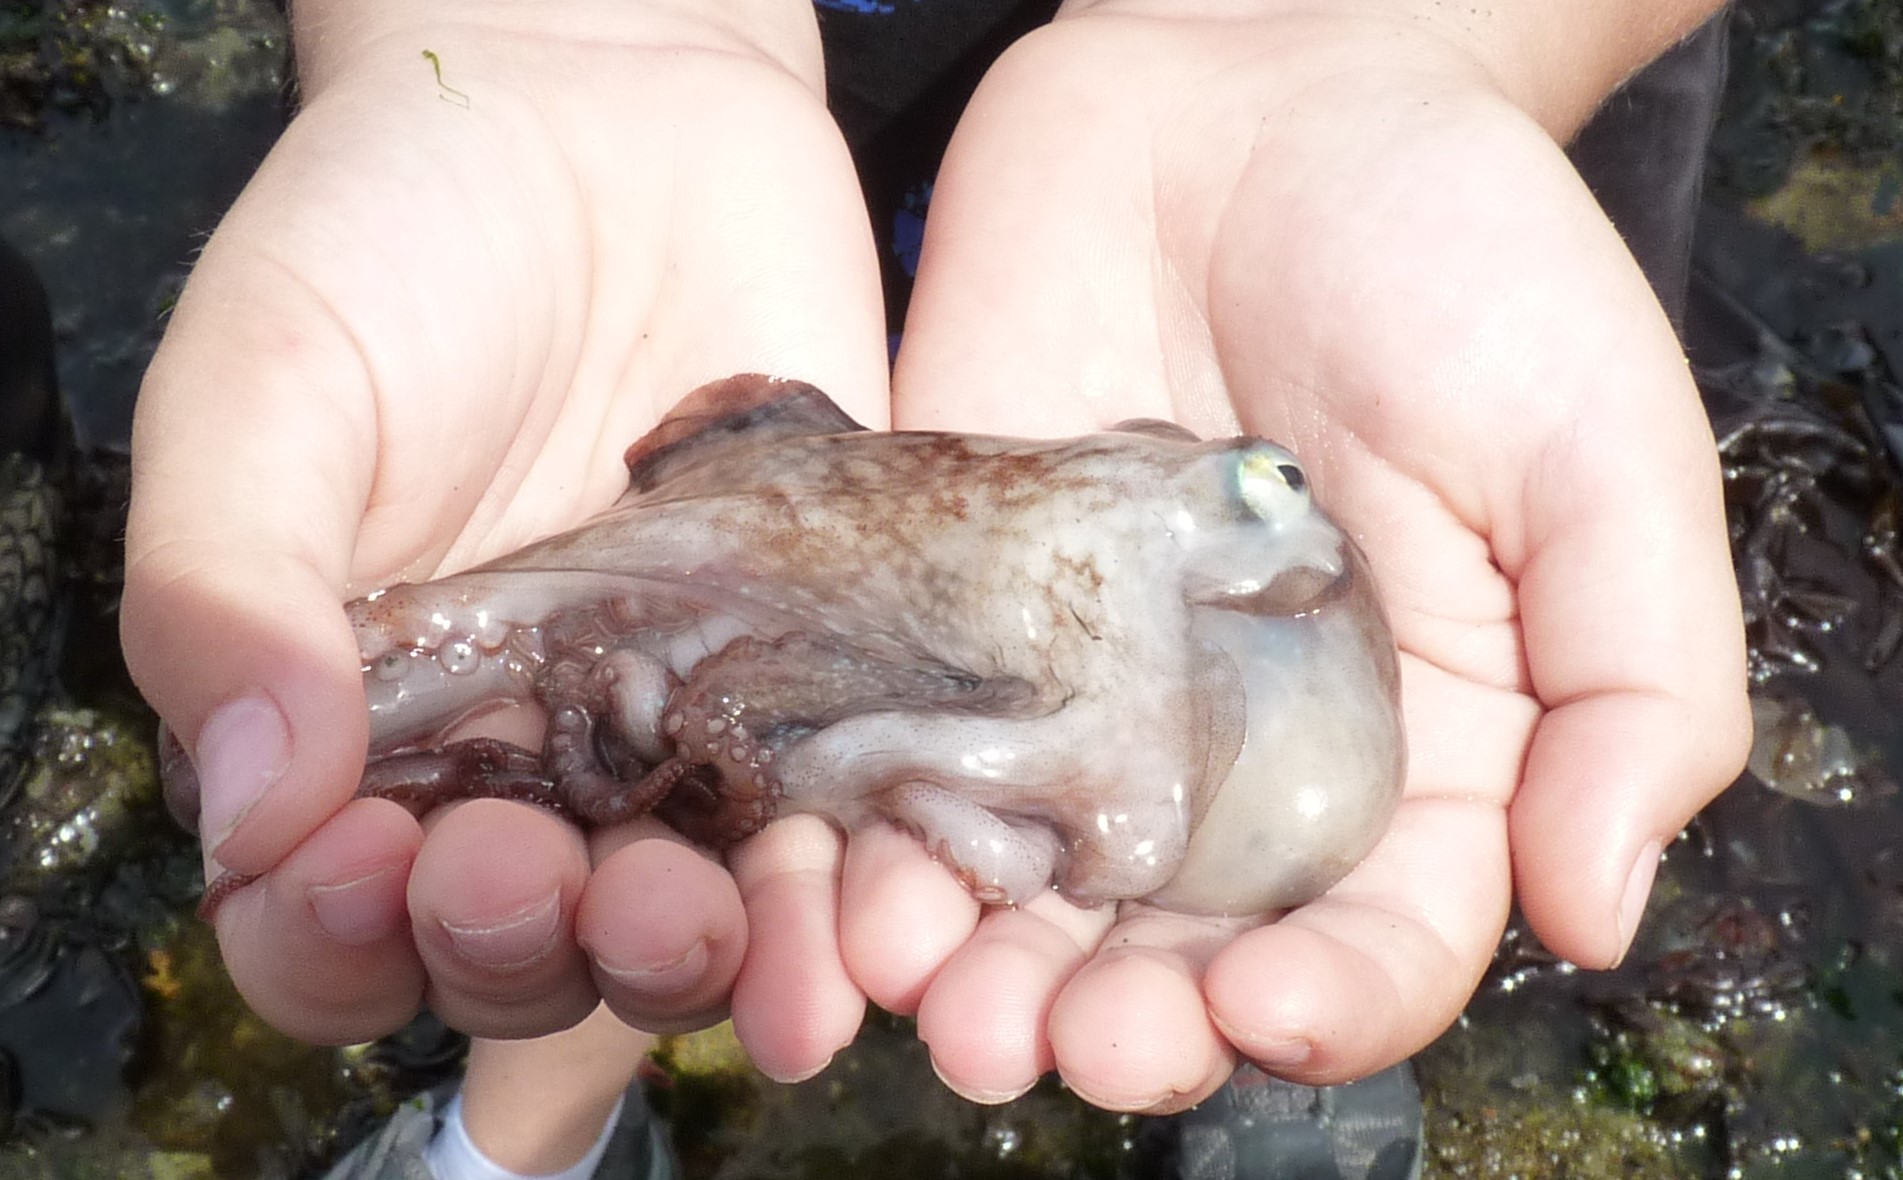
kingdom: Animalia
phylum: Mollusca
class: Cephalopoda
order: Octopoda
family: Octopodidae
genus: Octopus
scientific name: Octopus rubescens
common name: East pacific red octopus
